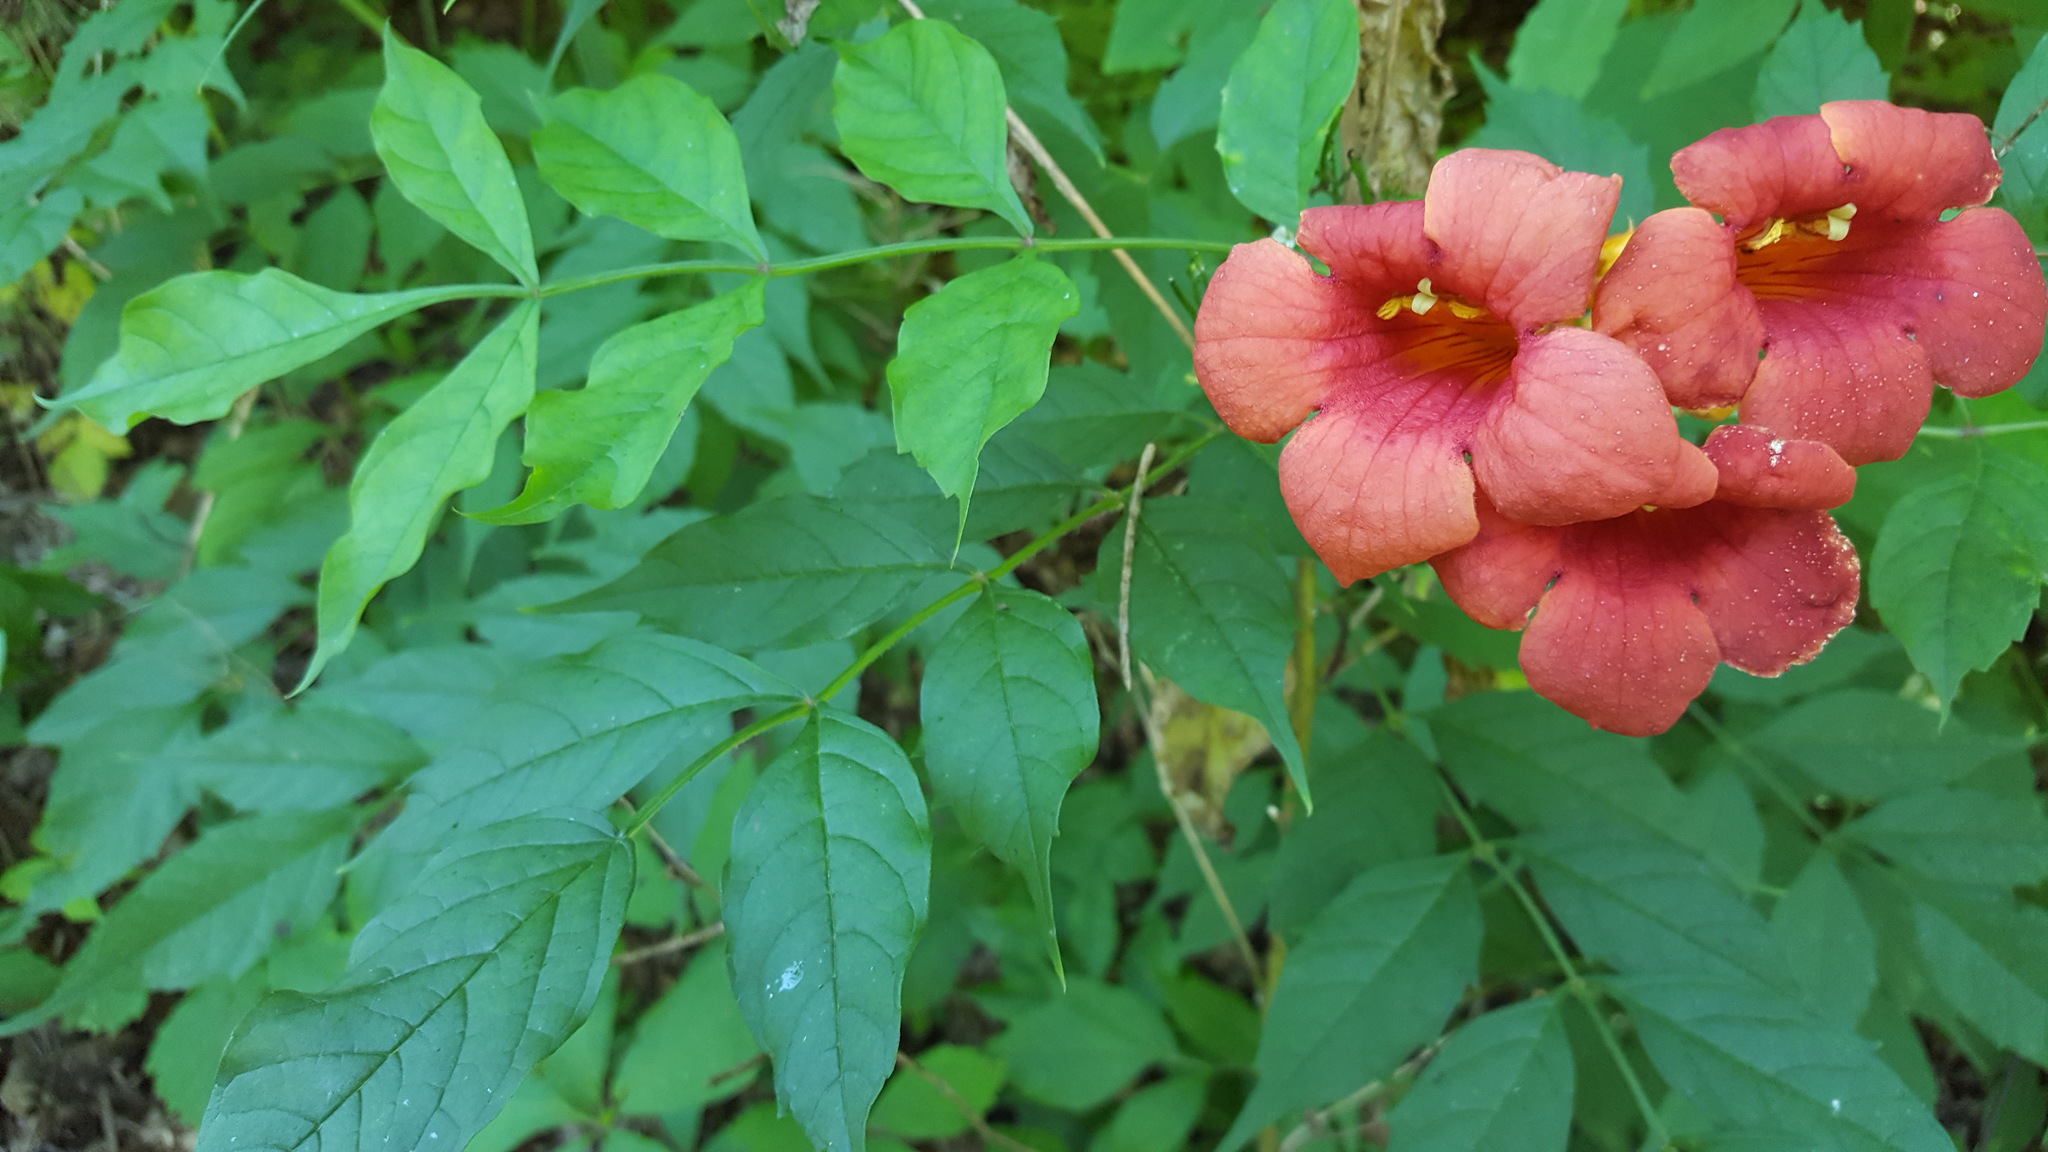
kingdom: Plantae
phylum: Tracheophyta
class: Magnoliopsida
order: Lamiales
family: Bignoniaceae
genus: Campsis
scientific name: Campsis radicans
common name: Trumpet-creeper
